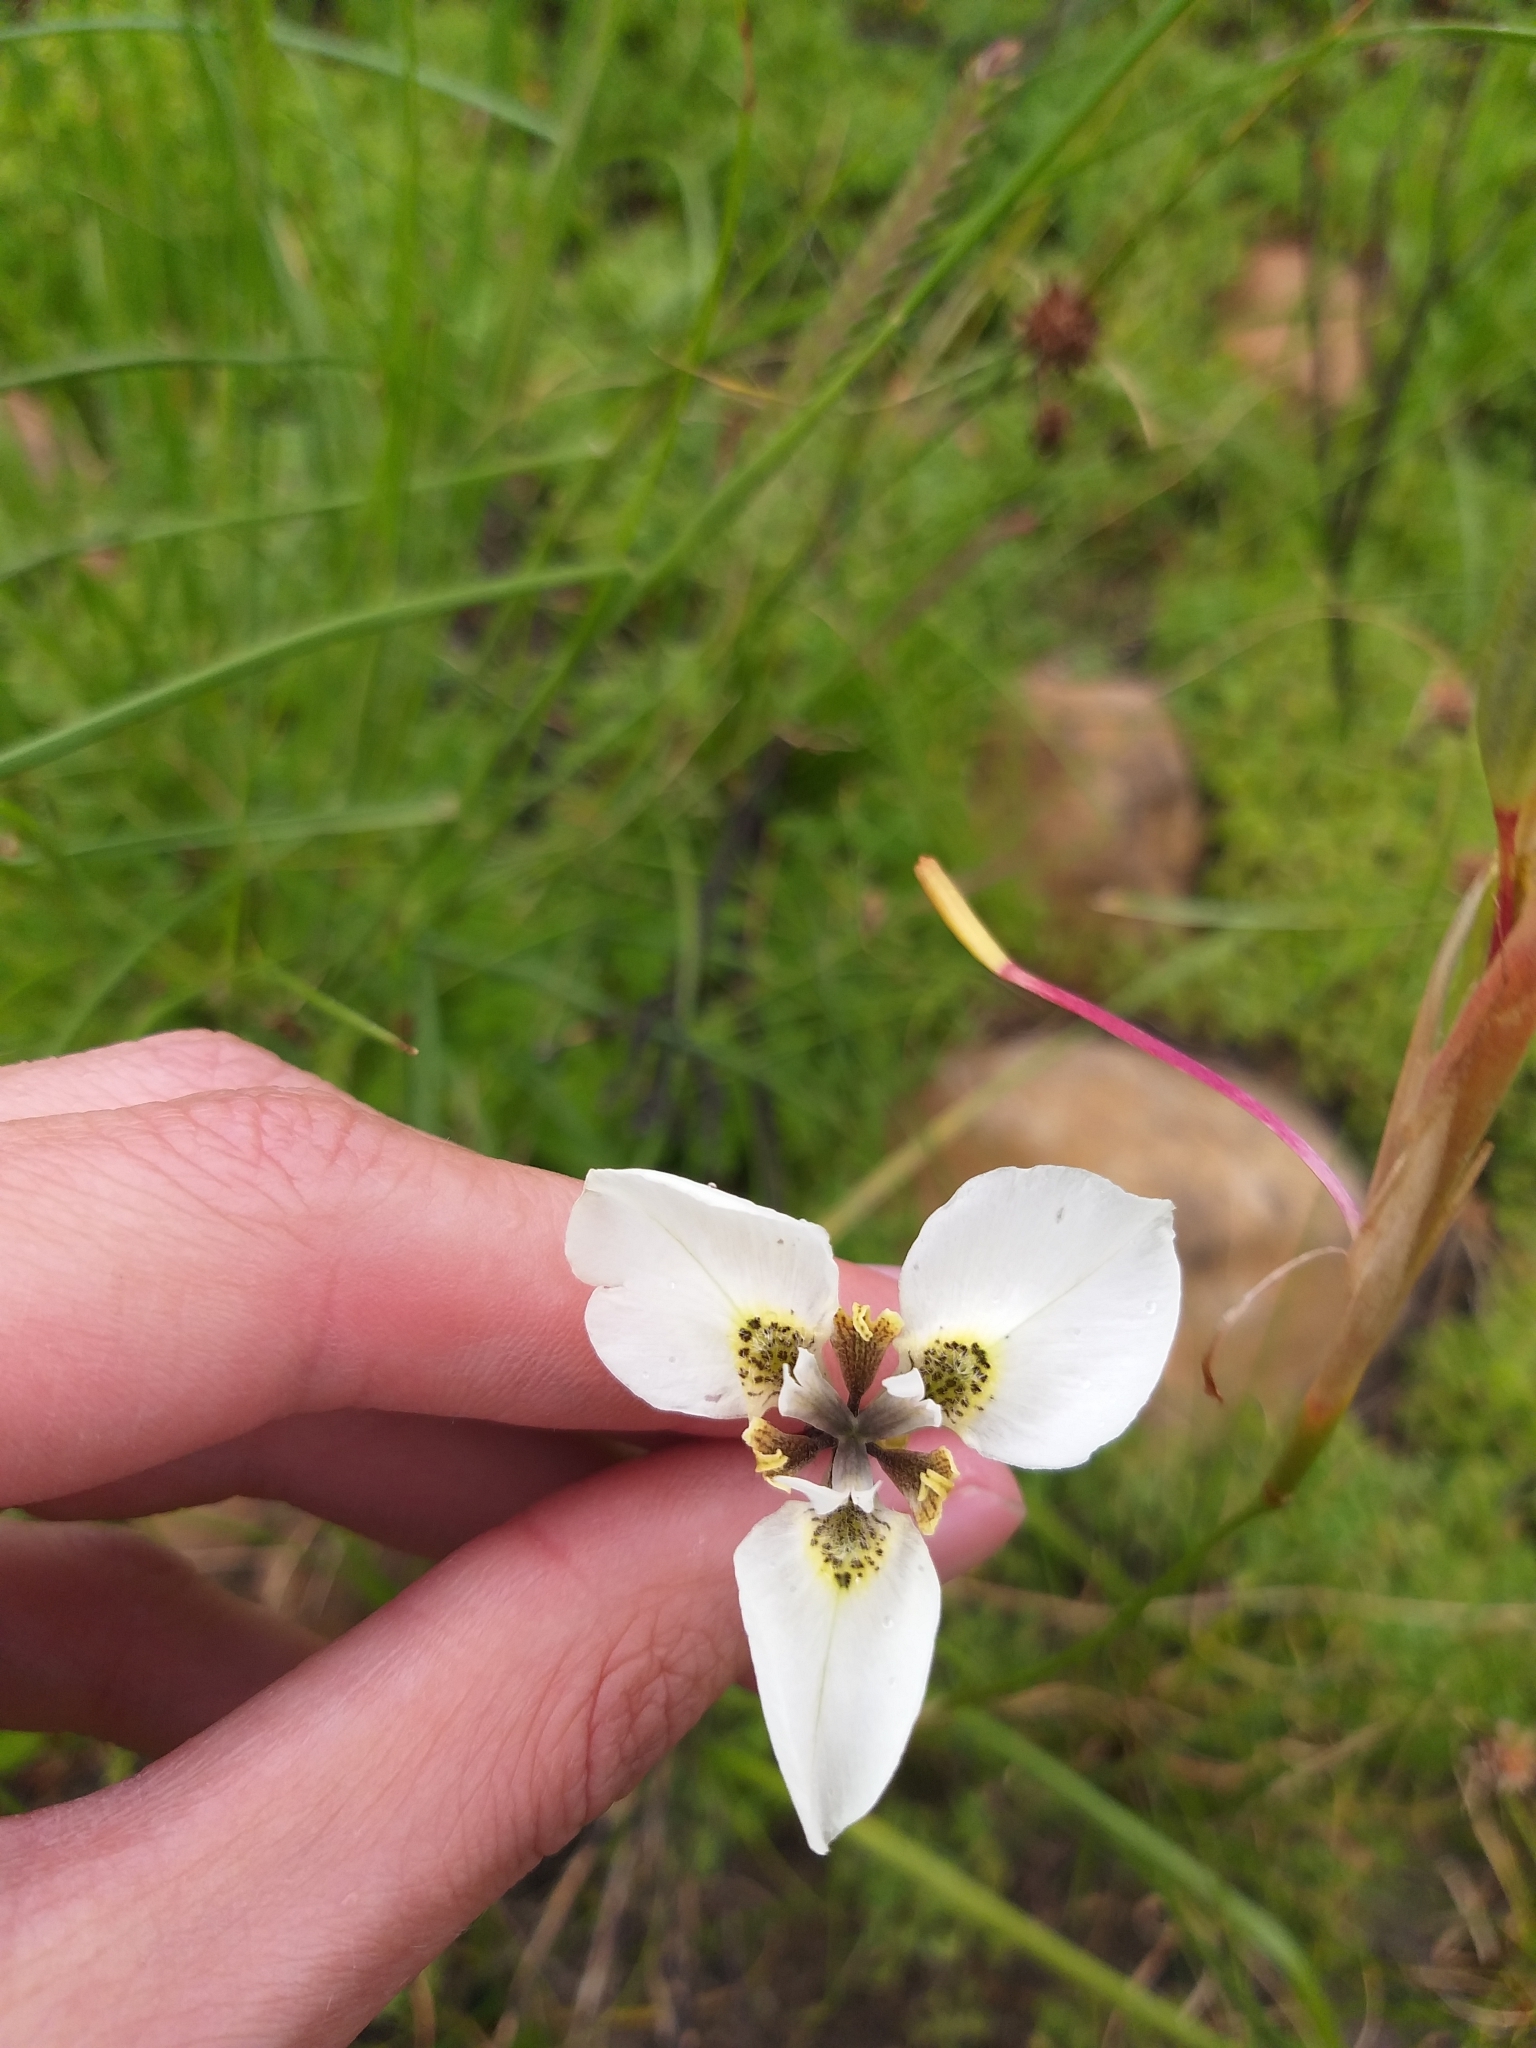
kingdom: Plantae
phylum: Tracheophyta
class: Liliopsida
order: Asparagales
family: Iridaceae
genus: Moraea
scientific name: Moraea tricuspidata
